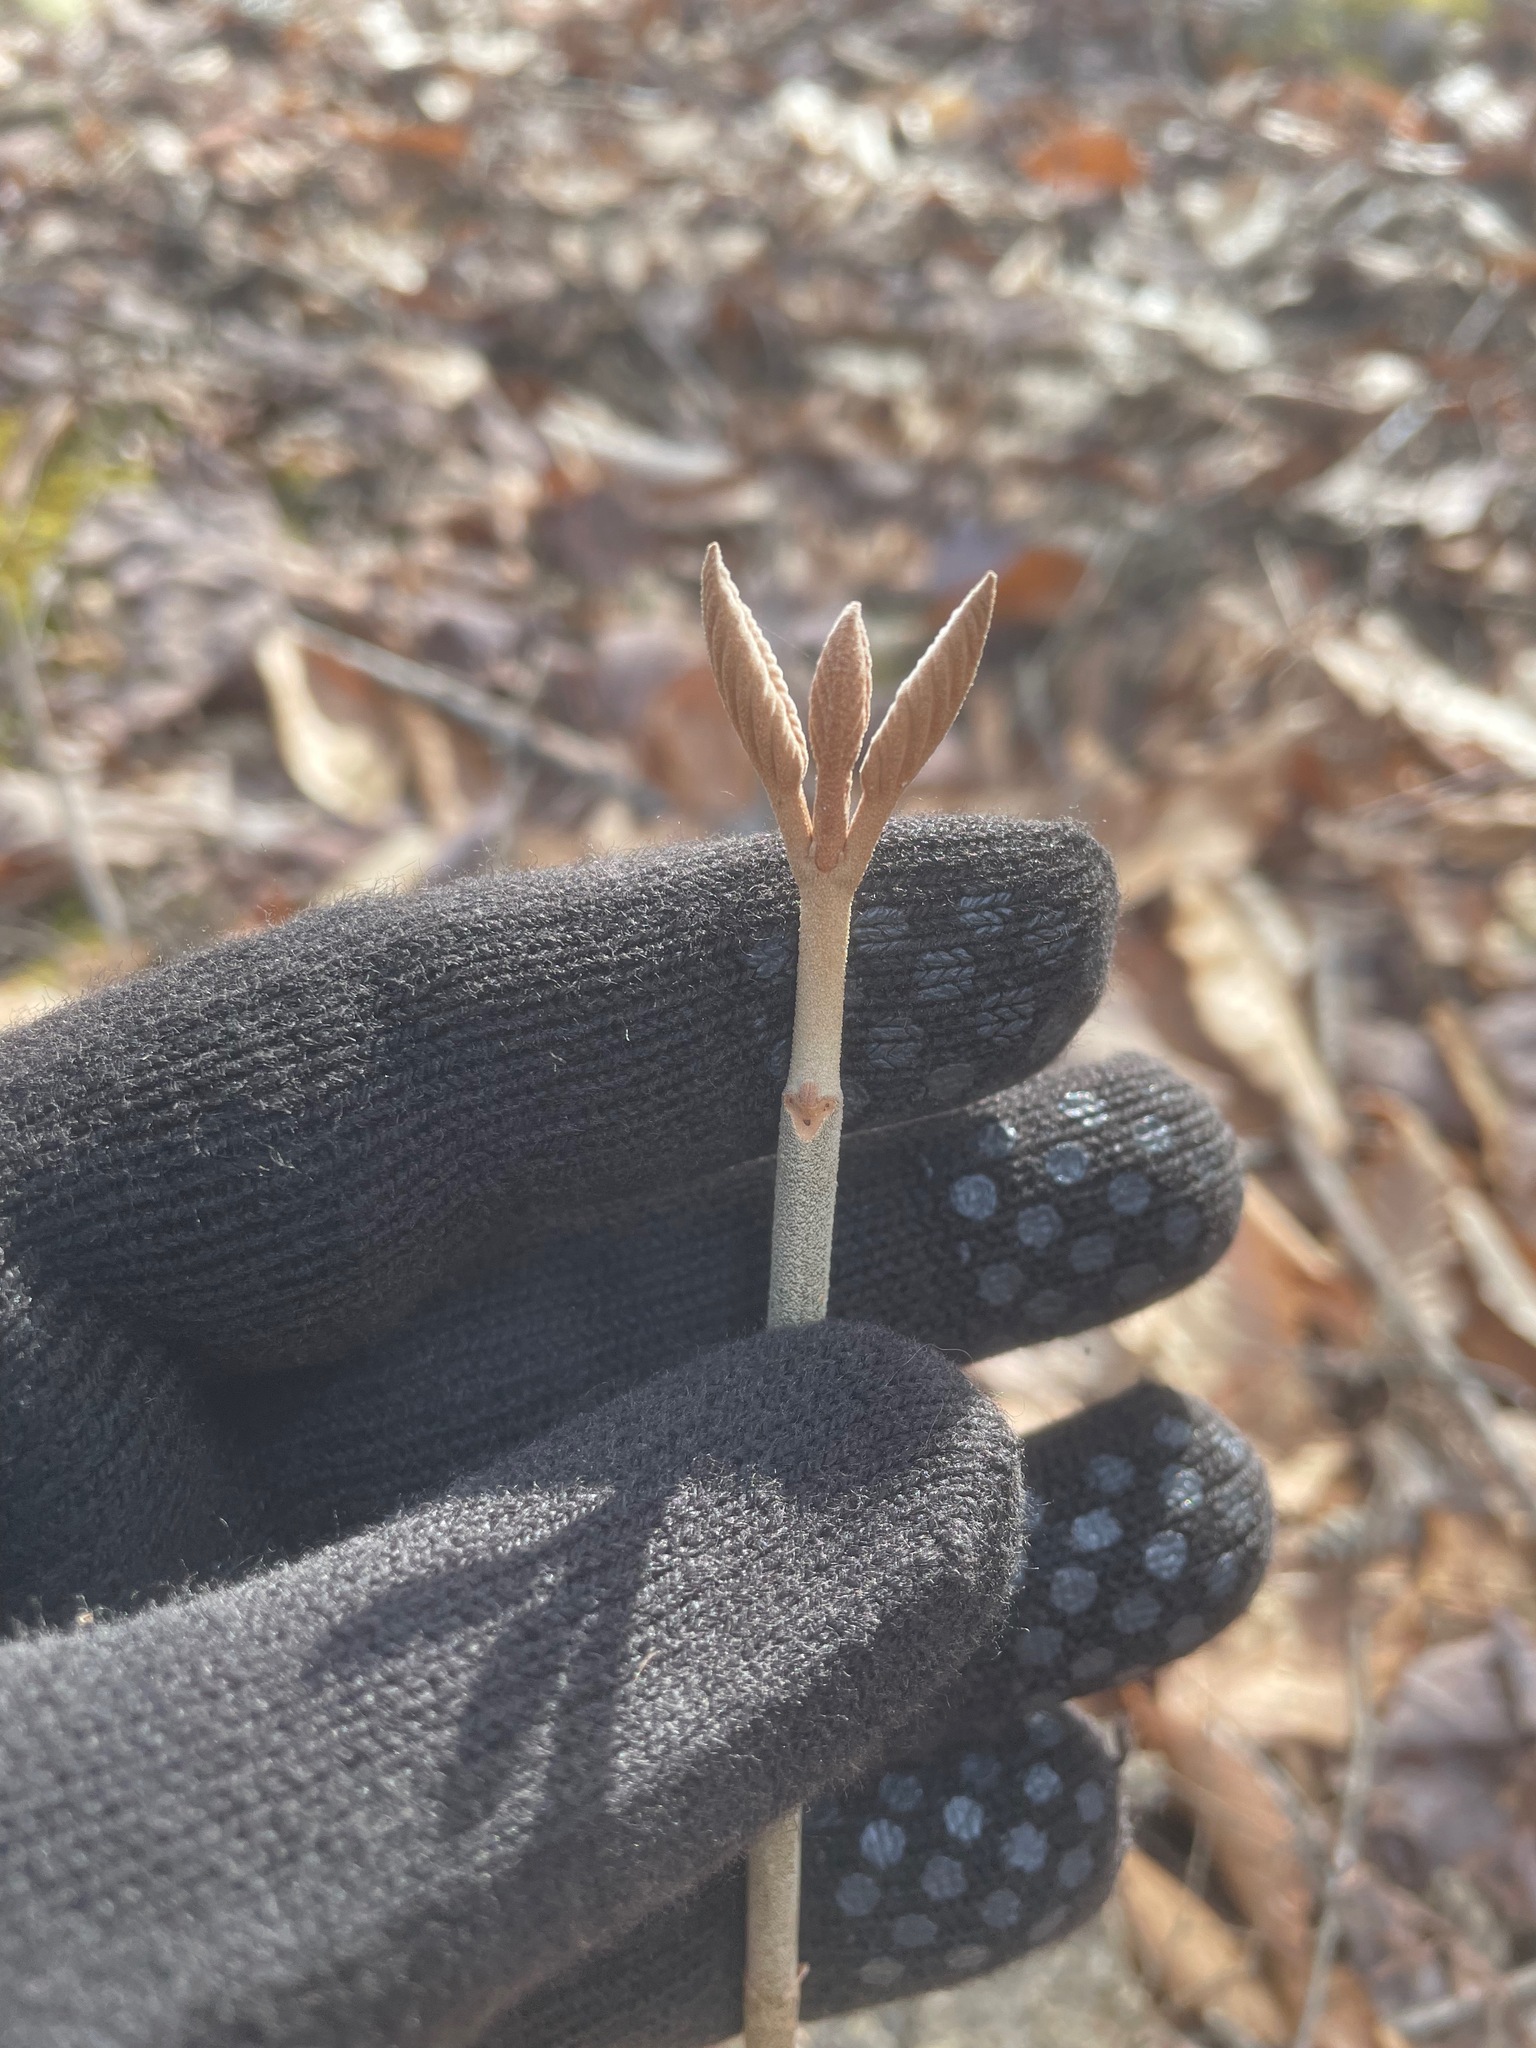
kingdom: Plantae
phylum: Tracheophyta
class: Magnoliopsida
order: Dipsacales
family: Viburnaceae
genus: Viburnum
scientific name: Viburnum lantanoides
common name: Hobblebush
